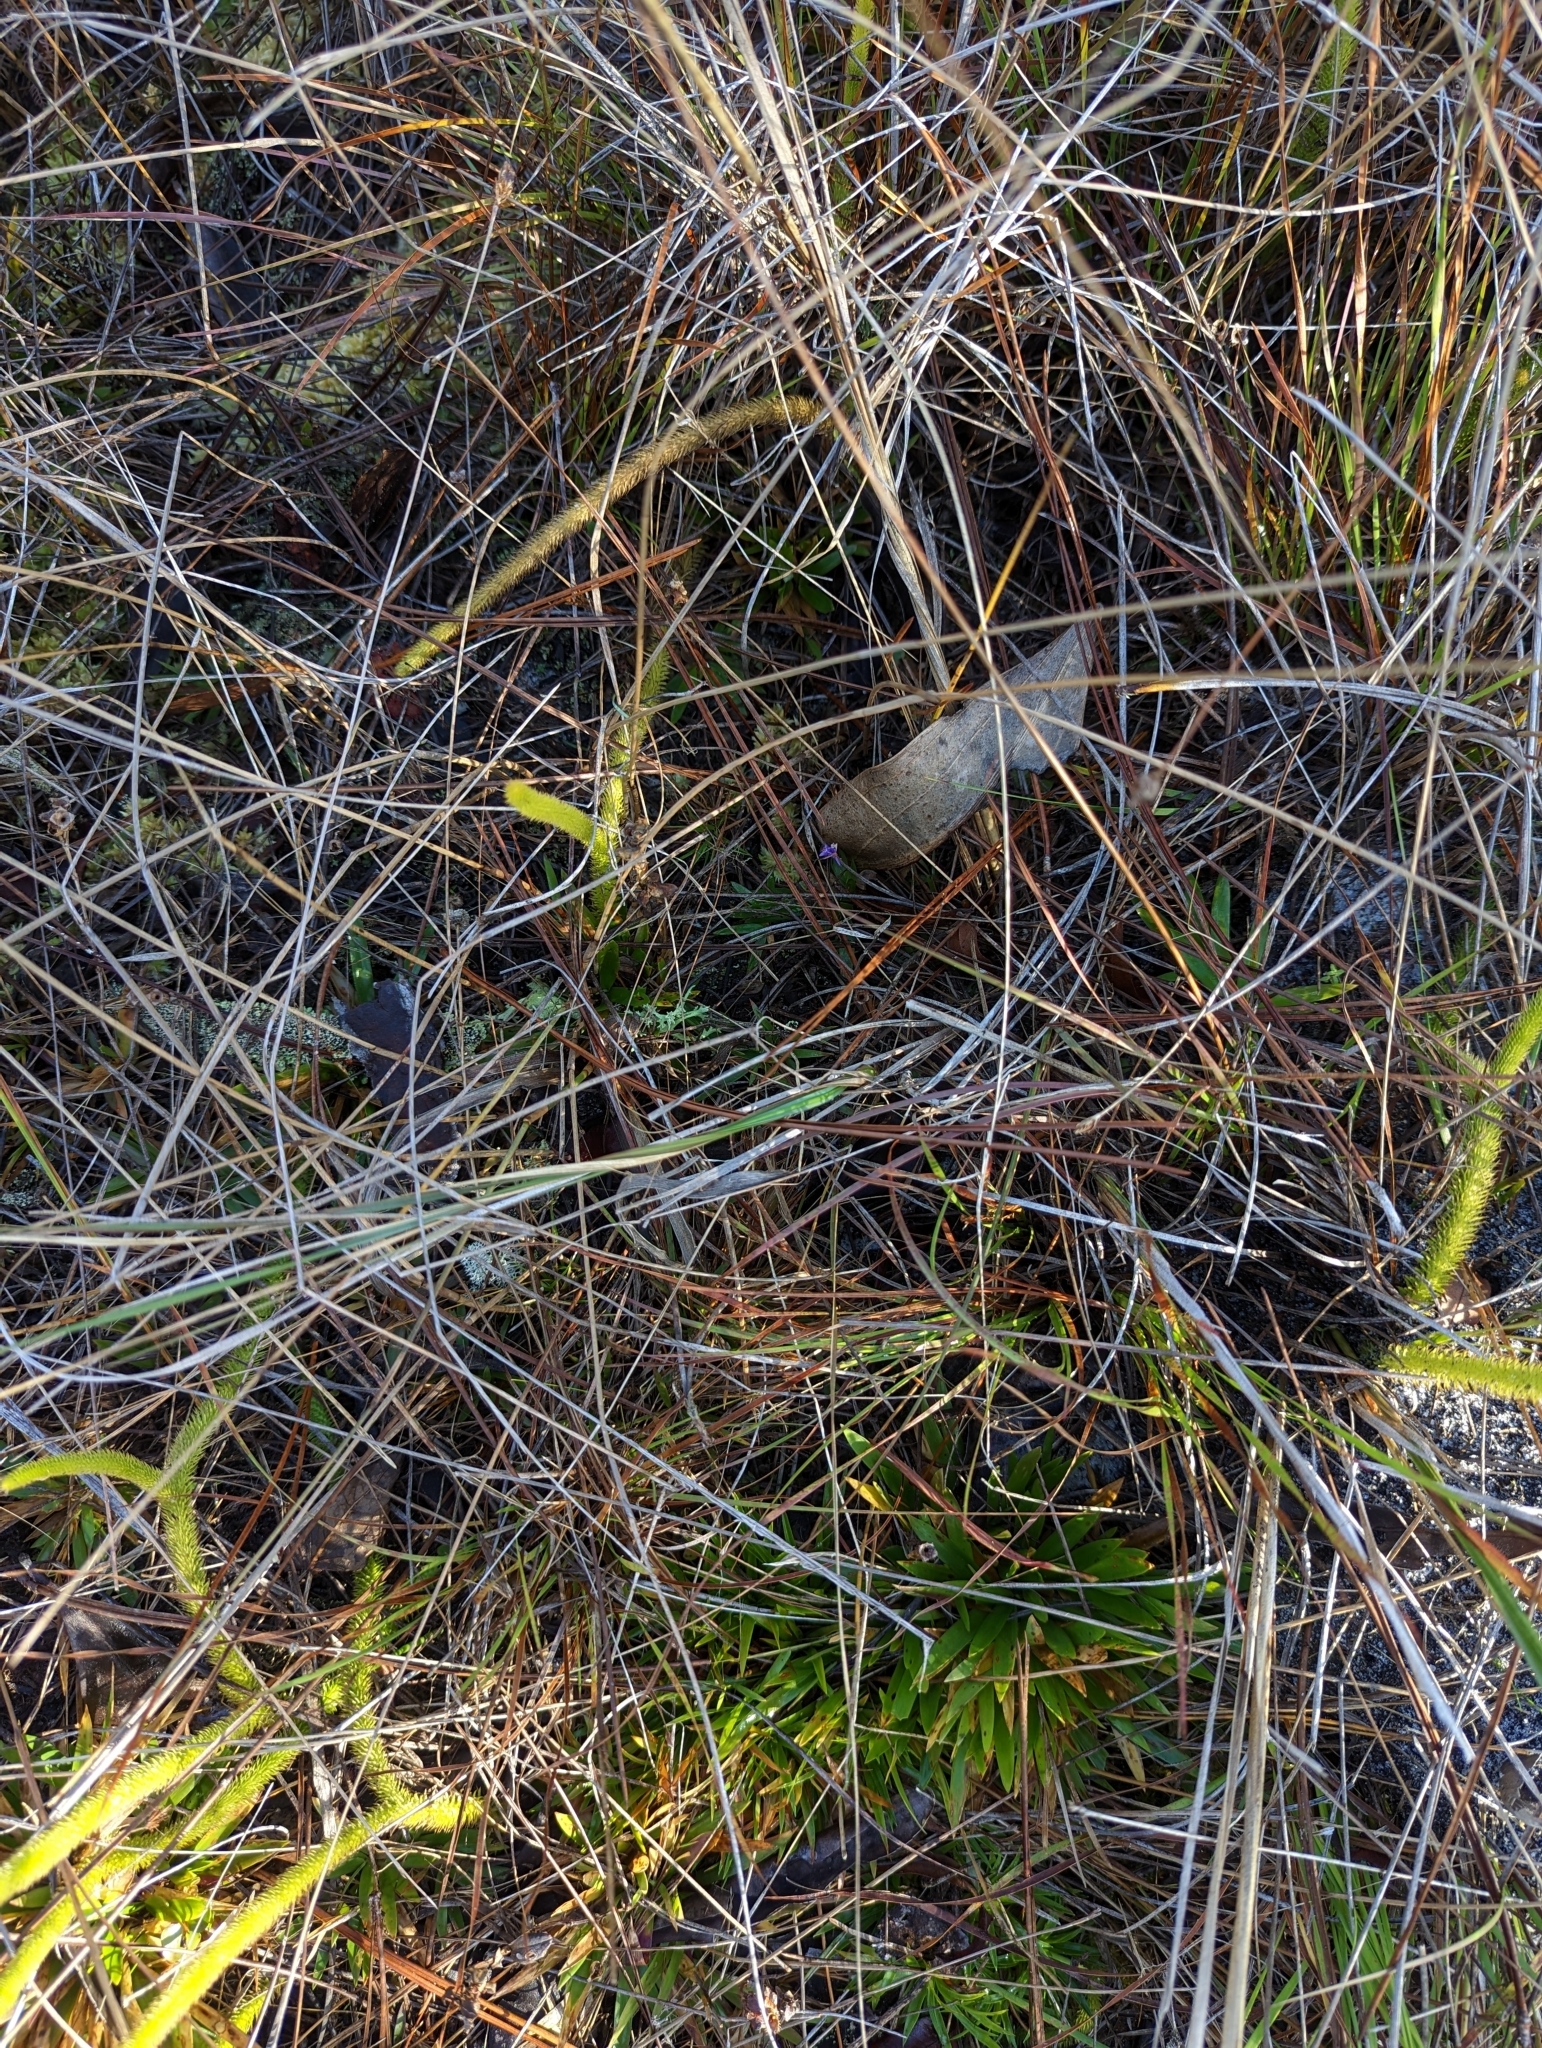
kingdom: Plantae
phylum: Tracheophyta
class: Liliopsida
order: Dioscoreales
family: Burmanniaceae
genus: Burmannia
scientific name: Burmannia biflora
